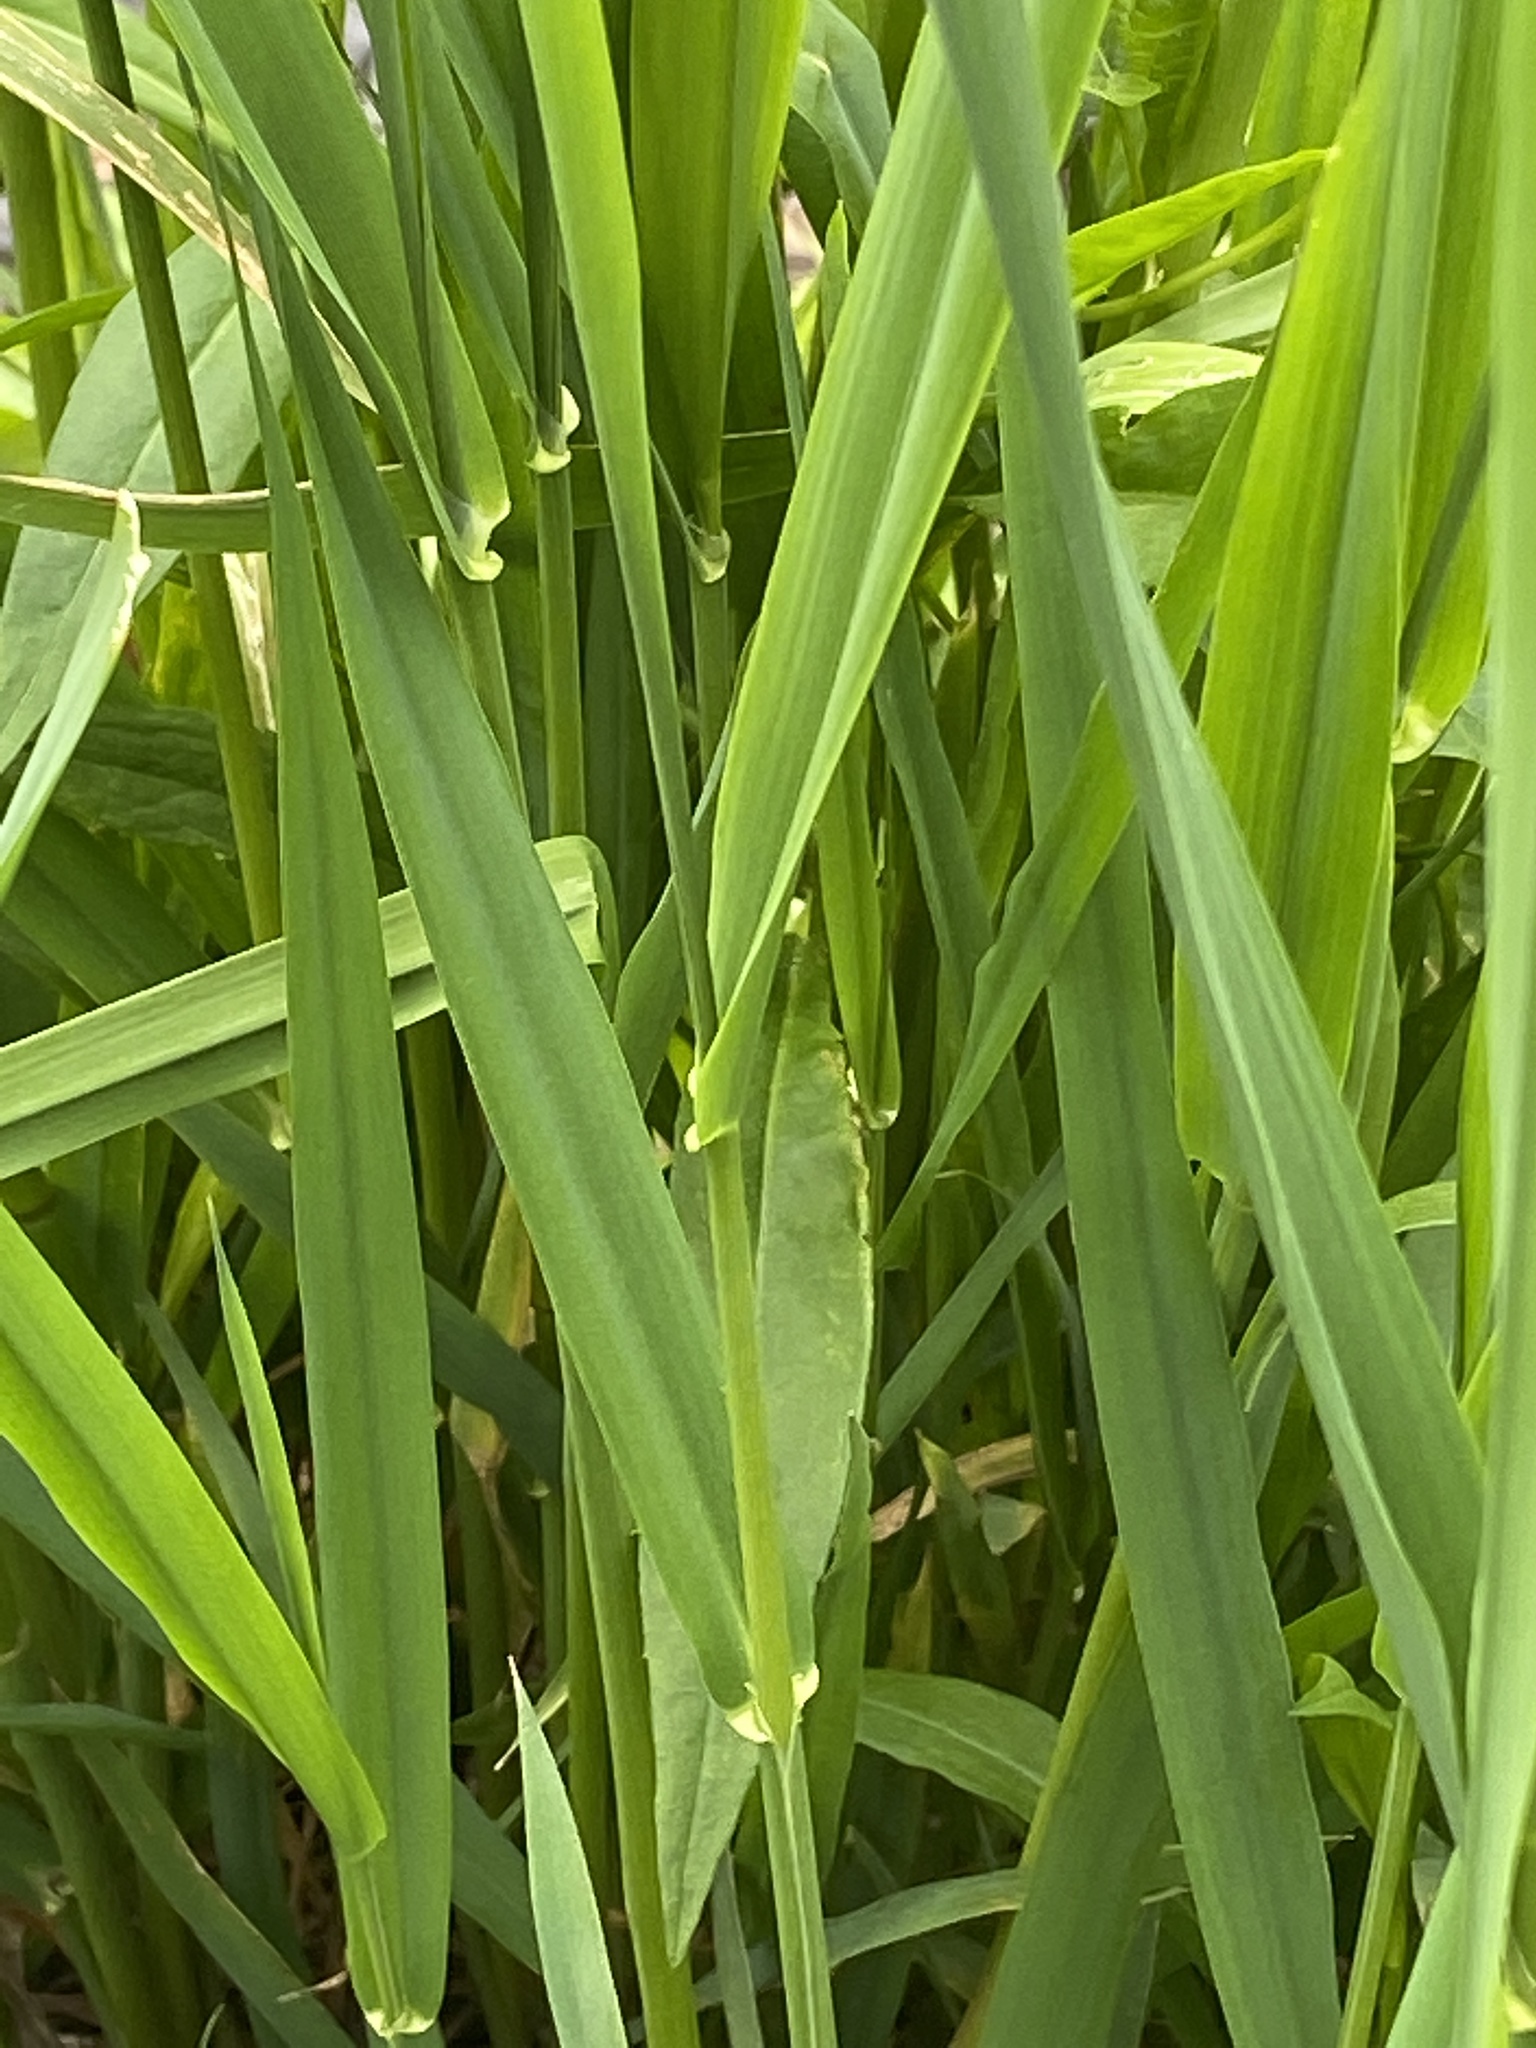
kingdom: Plantae
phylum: Tracheophyta
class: Liliopsida
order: Poales
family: Poaceae
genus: Phalaris
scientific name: Phalaris arundinacea
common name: Reed canary-grass
